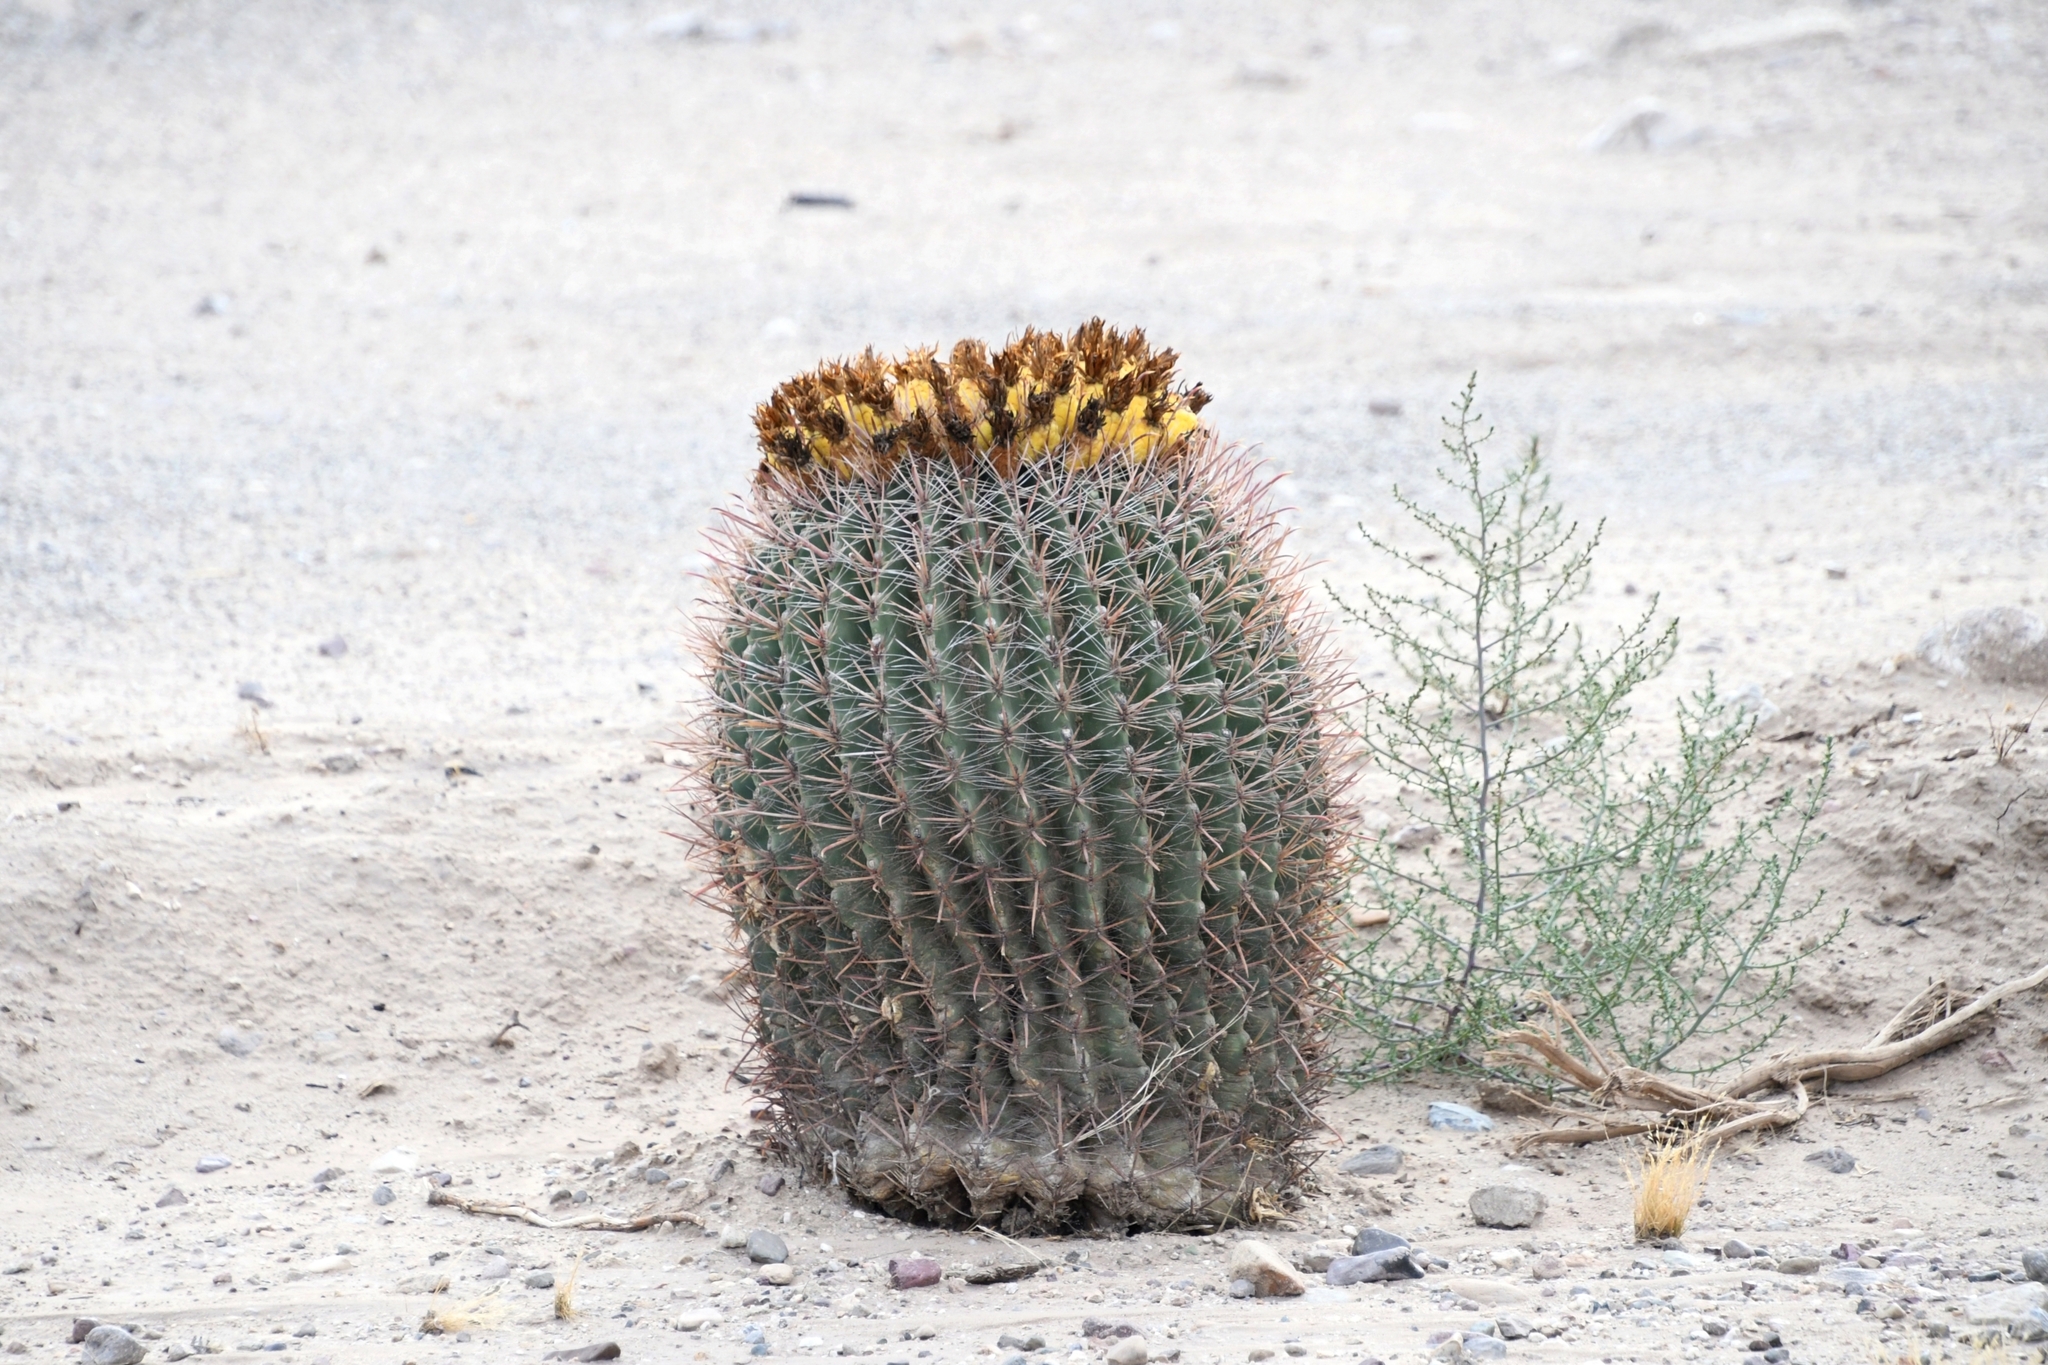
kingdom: Plantae
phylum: Tracheophyta
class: Magnoliopsida
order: Caryophyllales
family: Cactaceae
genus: Ferocactus
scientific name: Ferocactus wislizeni
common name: Candy barrel cactus
